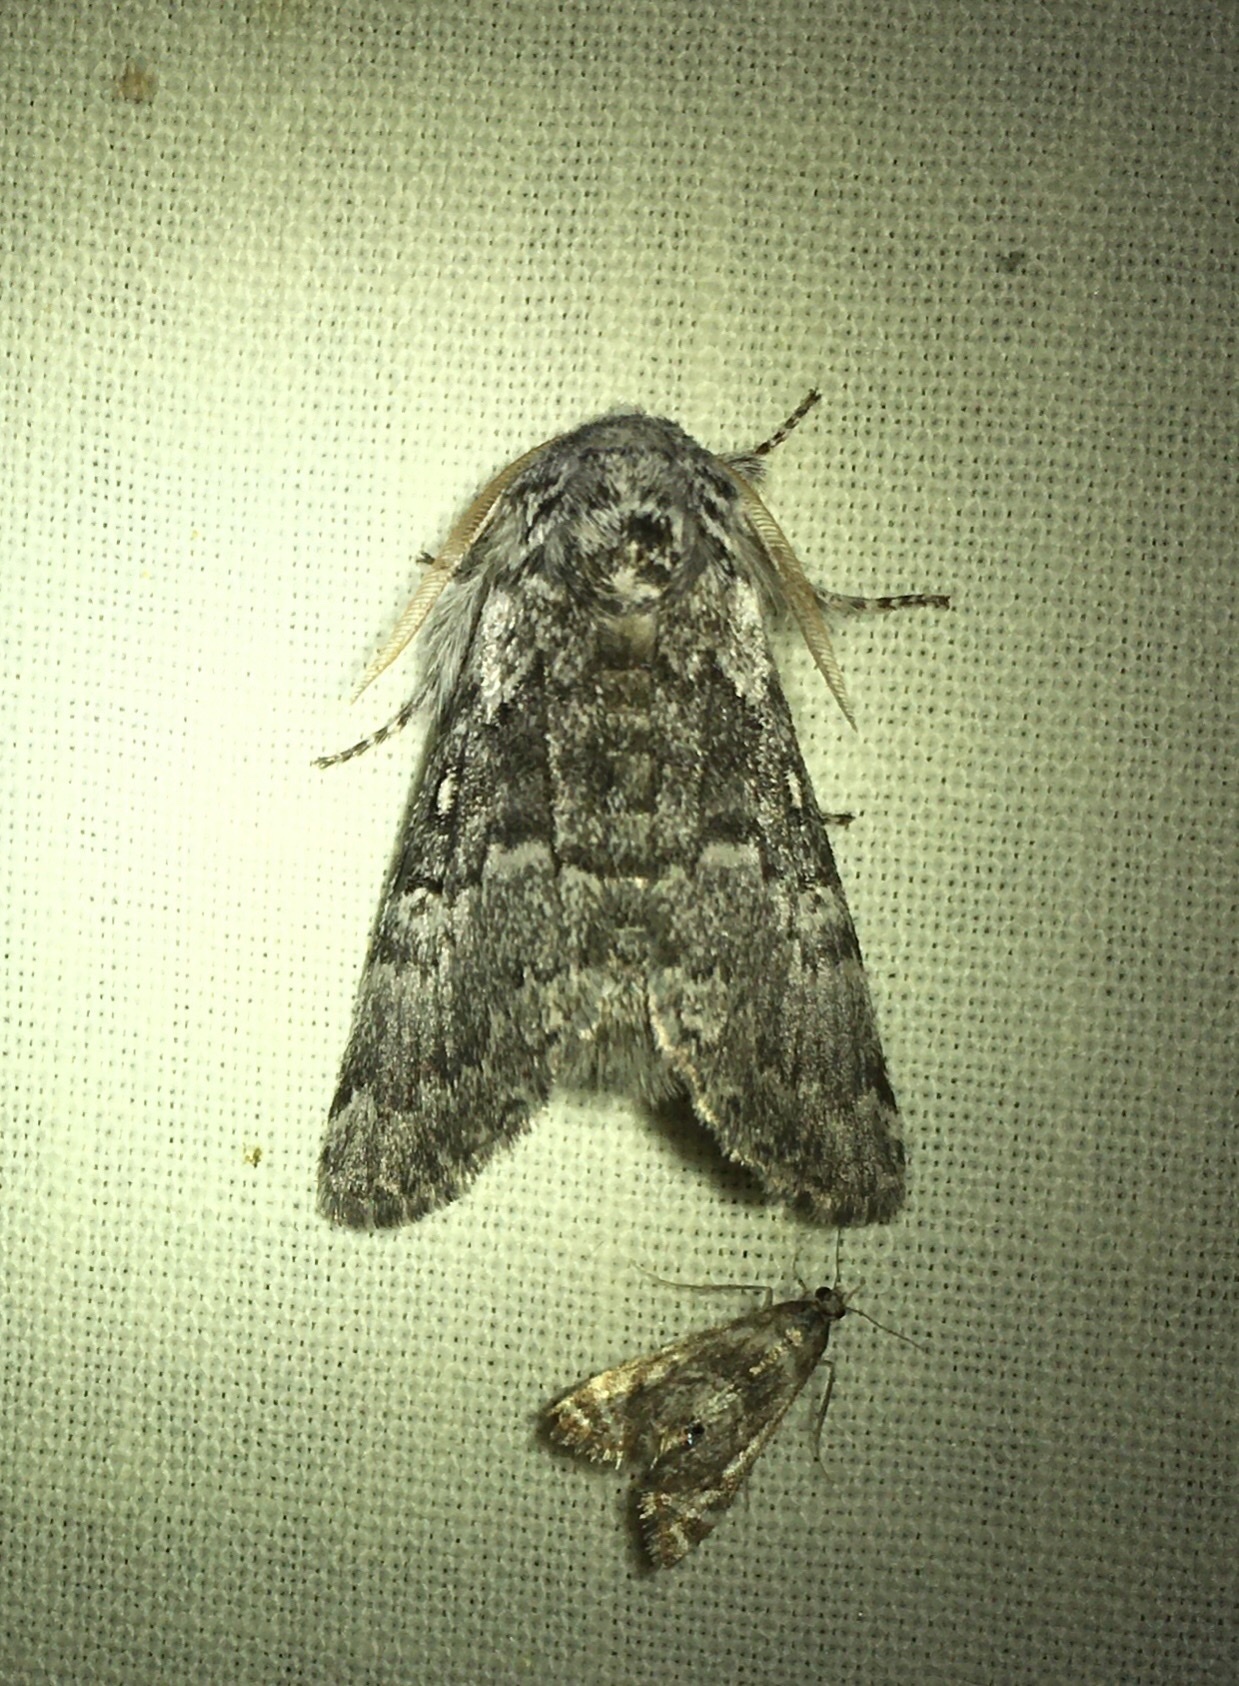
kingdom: Animalia
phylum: Arthropoda
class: Insecta
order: Lepidoptera
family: Noctuidae
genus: Colocasia
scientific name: Colocasia propinquilinea
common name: Close-banded demas
